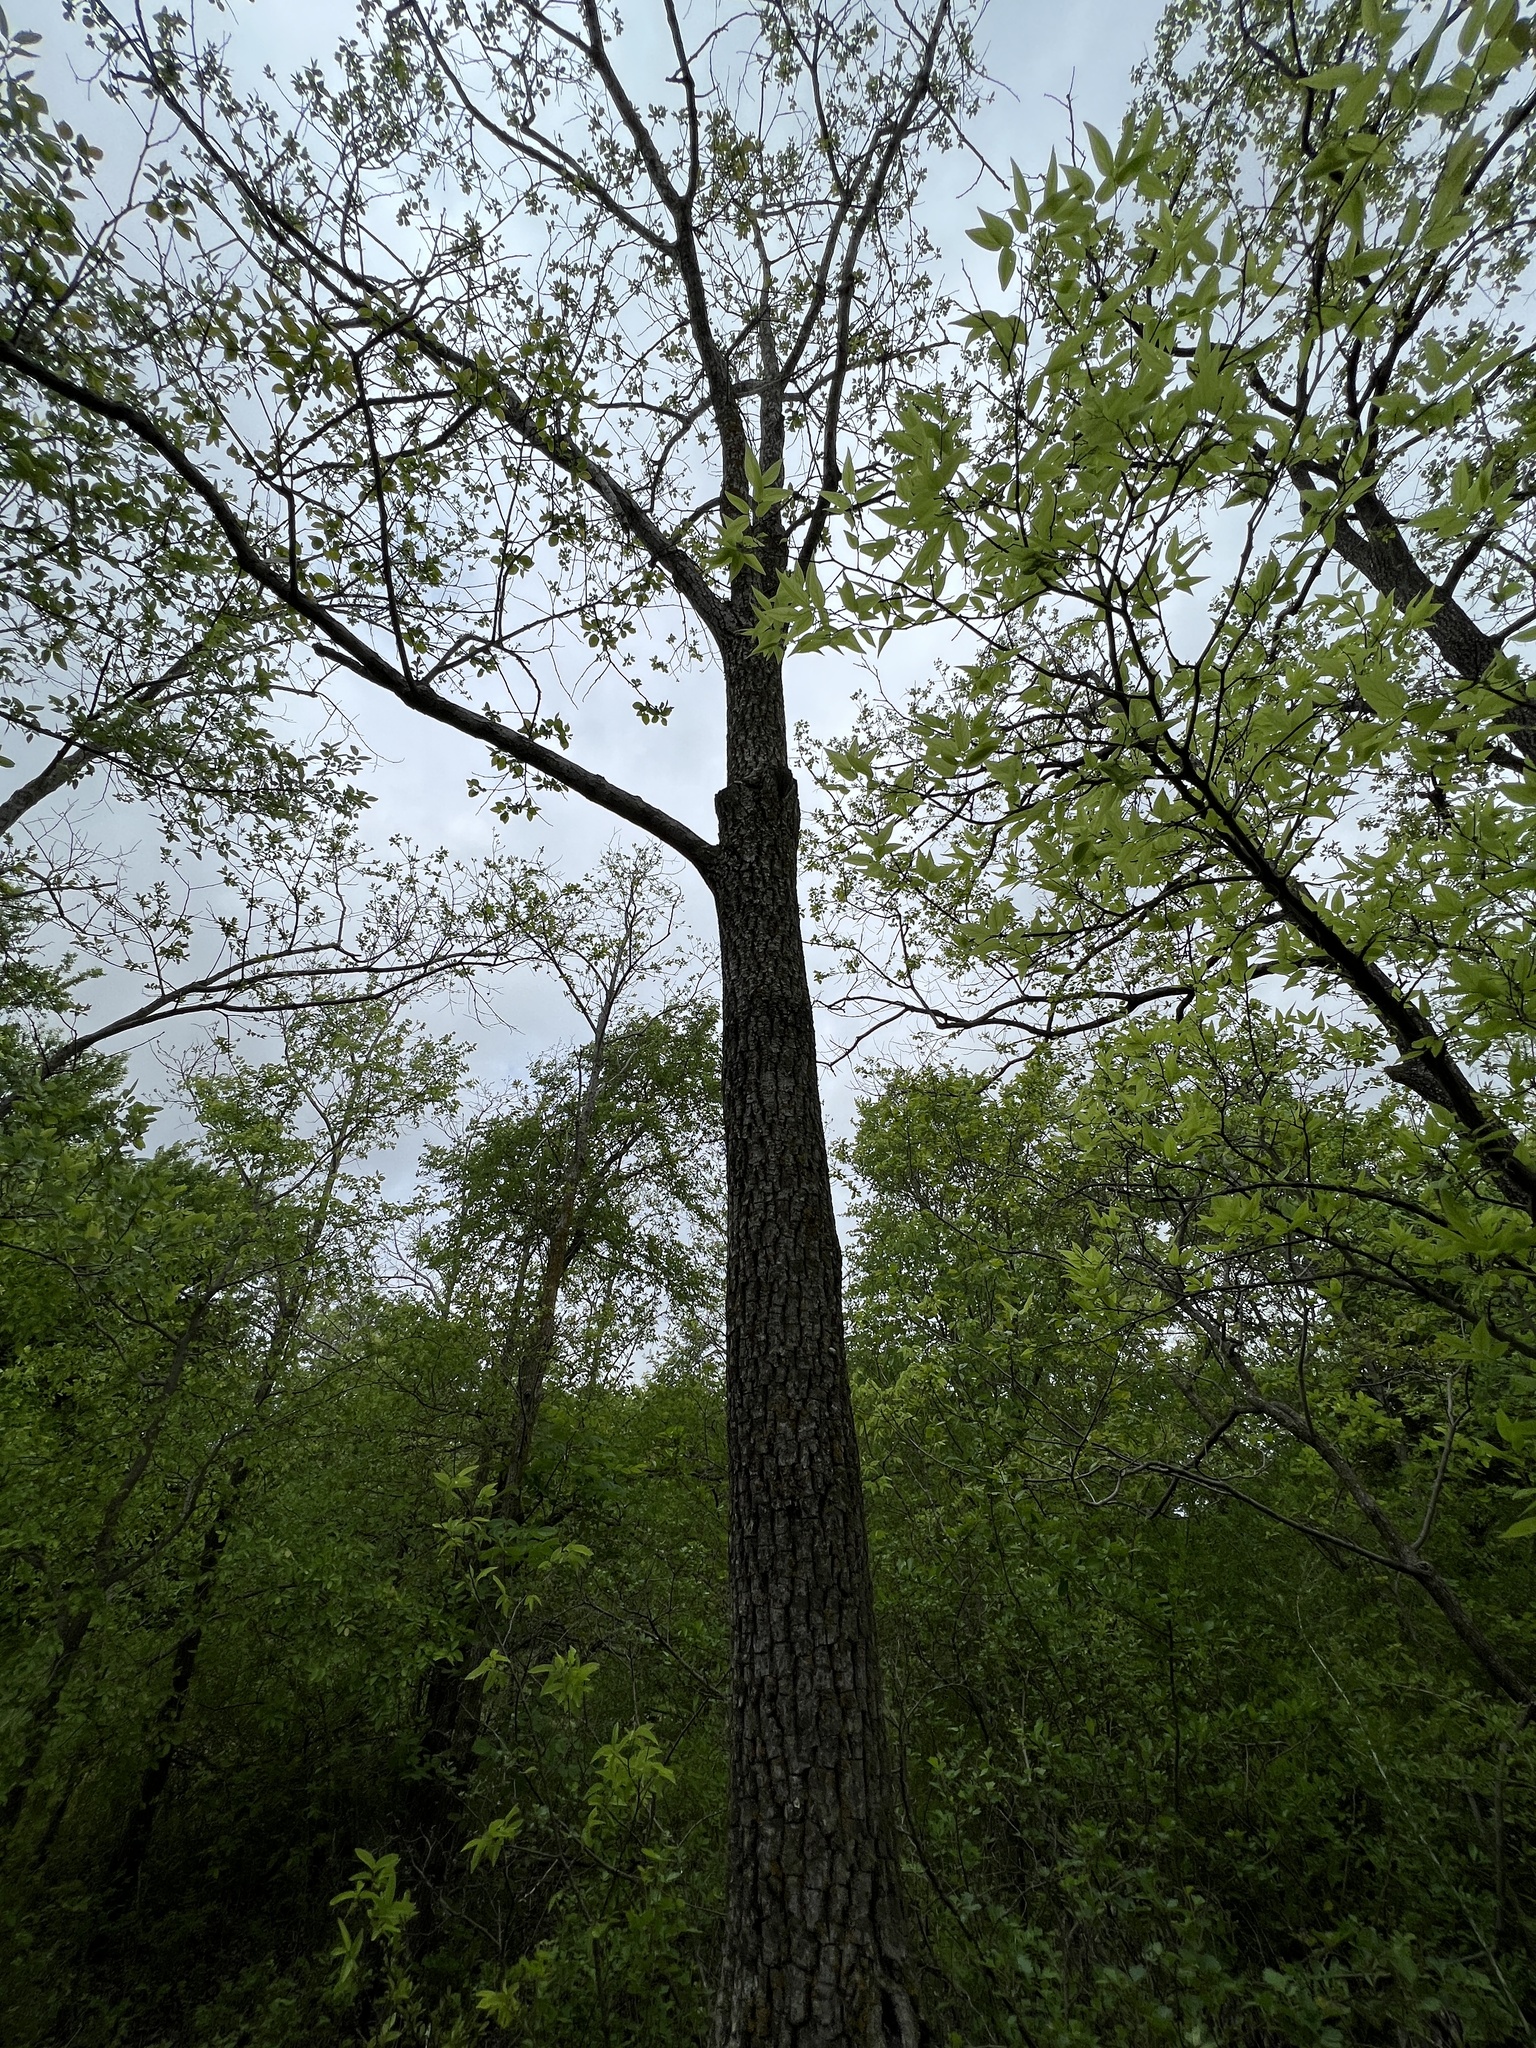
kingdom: Plantae
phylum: Tracheophyta
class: Magnoliopsida
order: Ericales
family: Ebenaceae
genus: Diospyros
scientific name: Diospyros virginiana
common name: Persimmon
